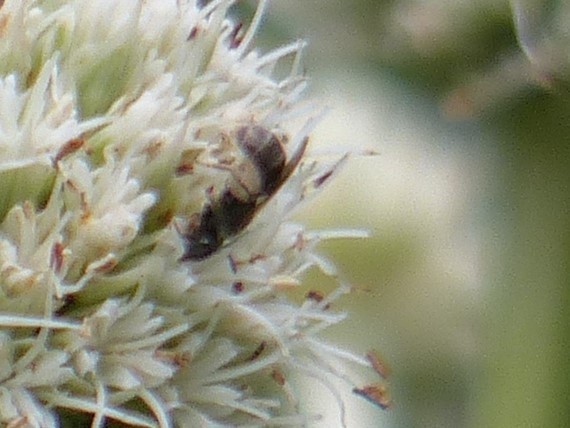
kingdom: Animalia
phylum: Arthropoda
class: Insecta
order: Hymenoptera
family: Halictidae
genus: Dialictus
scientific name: Dialictus
